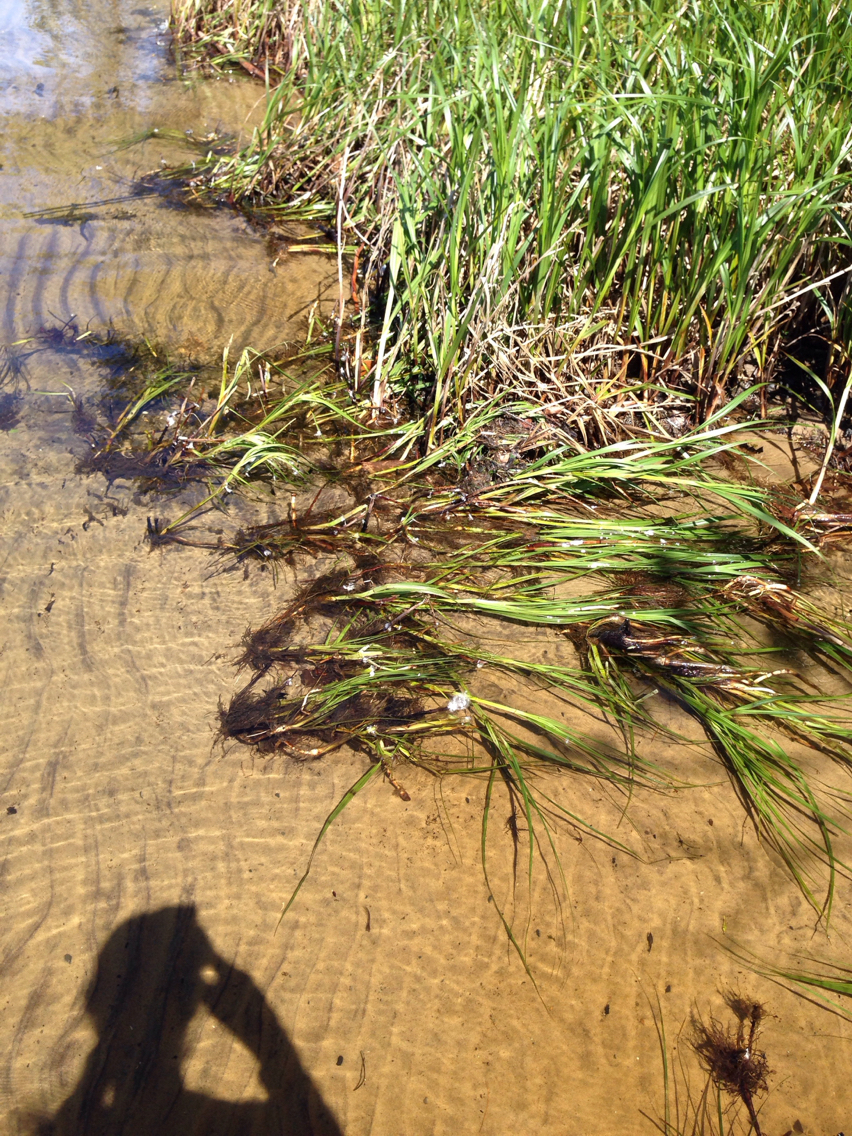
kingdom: Plantae
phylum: Tracheophyta
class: Liliopsida
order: Poales
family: Cyperaceae
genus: Bolboschoenus
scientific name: Bolboschoenus fluviatilis
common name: River bulrush
